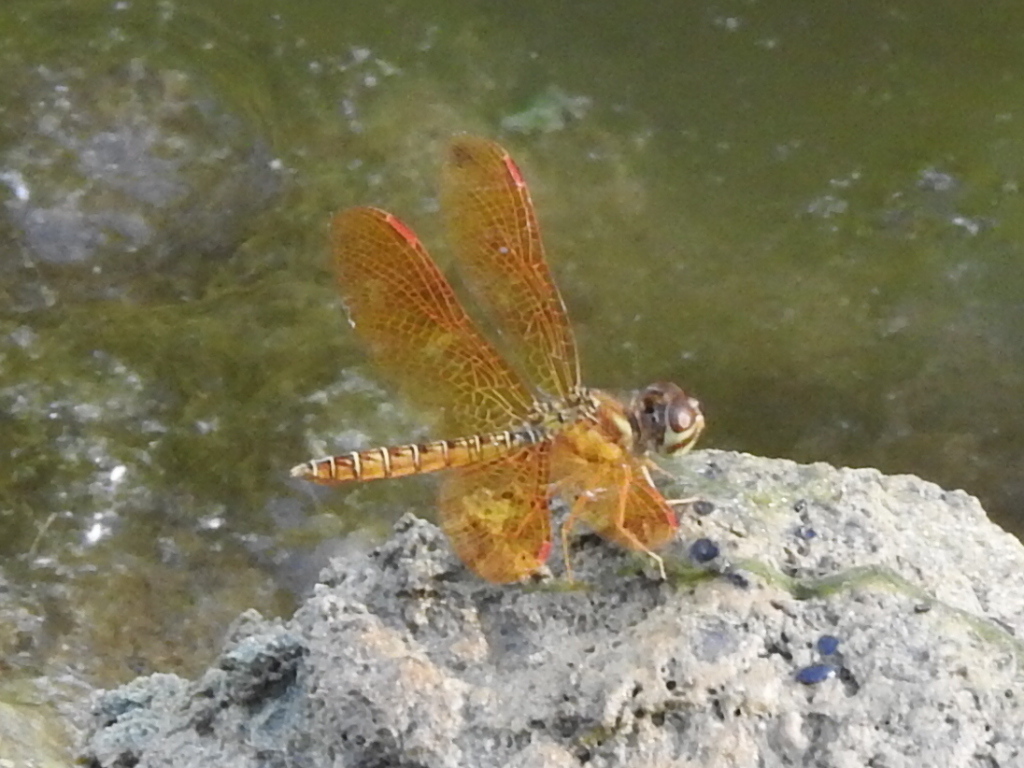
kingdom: Animalia
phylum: Arthropoda
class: Insecta
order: Odonata
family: Libellulidae
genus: Perithemis
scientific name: Perithemis tenera
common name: Eastern amberwing
